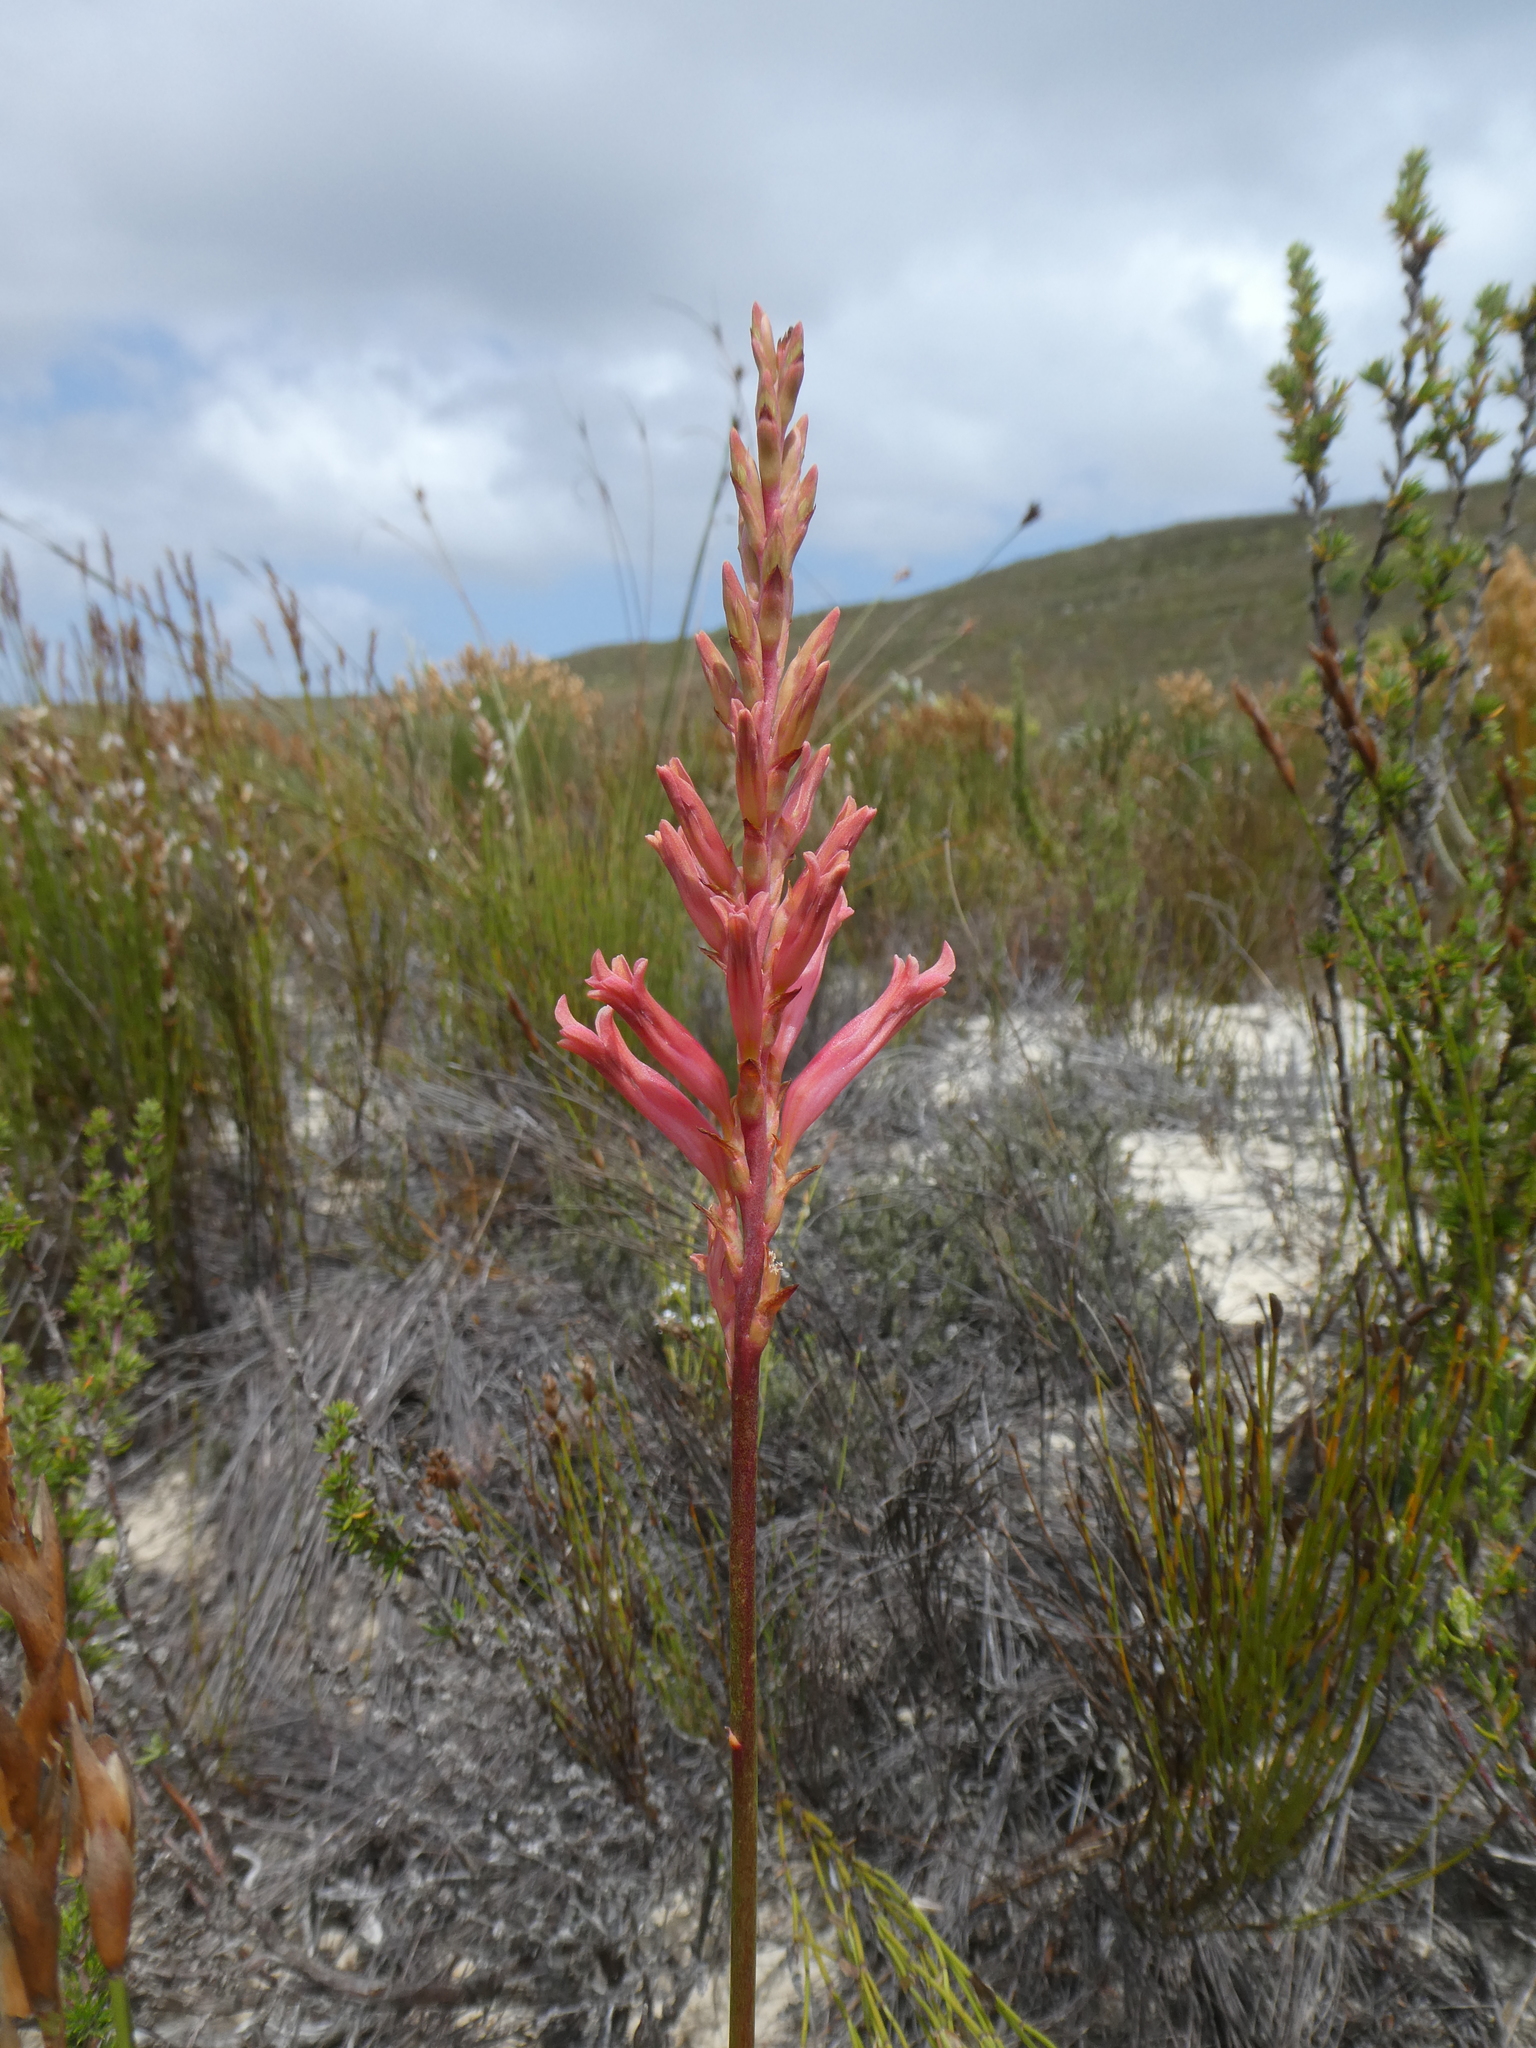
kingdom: Plantae
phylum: Tracheophyta
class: Liliopsida
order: Asparagales
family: Iridaceae
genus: Tritoniopsis
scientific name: Tritoniopsis triticea
